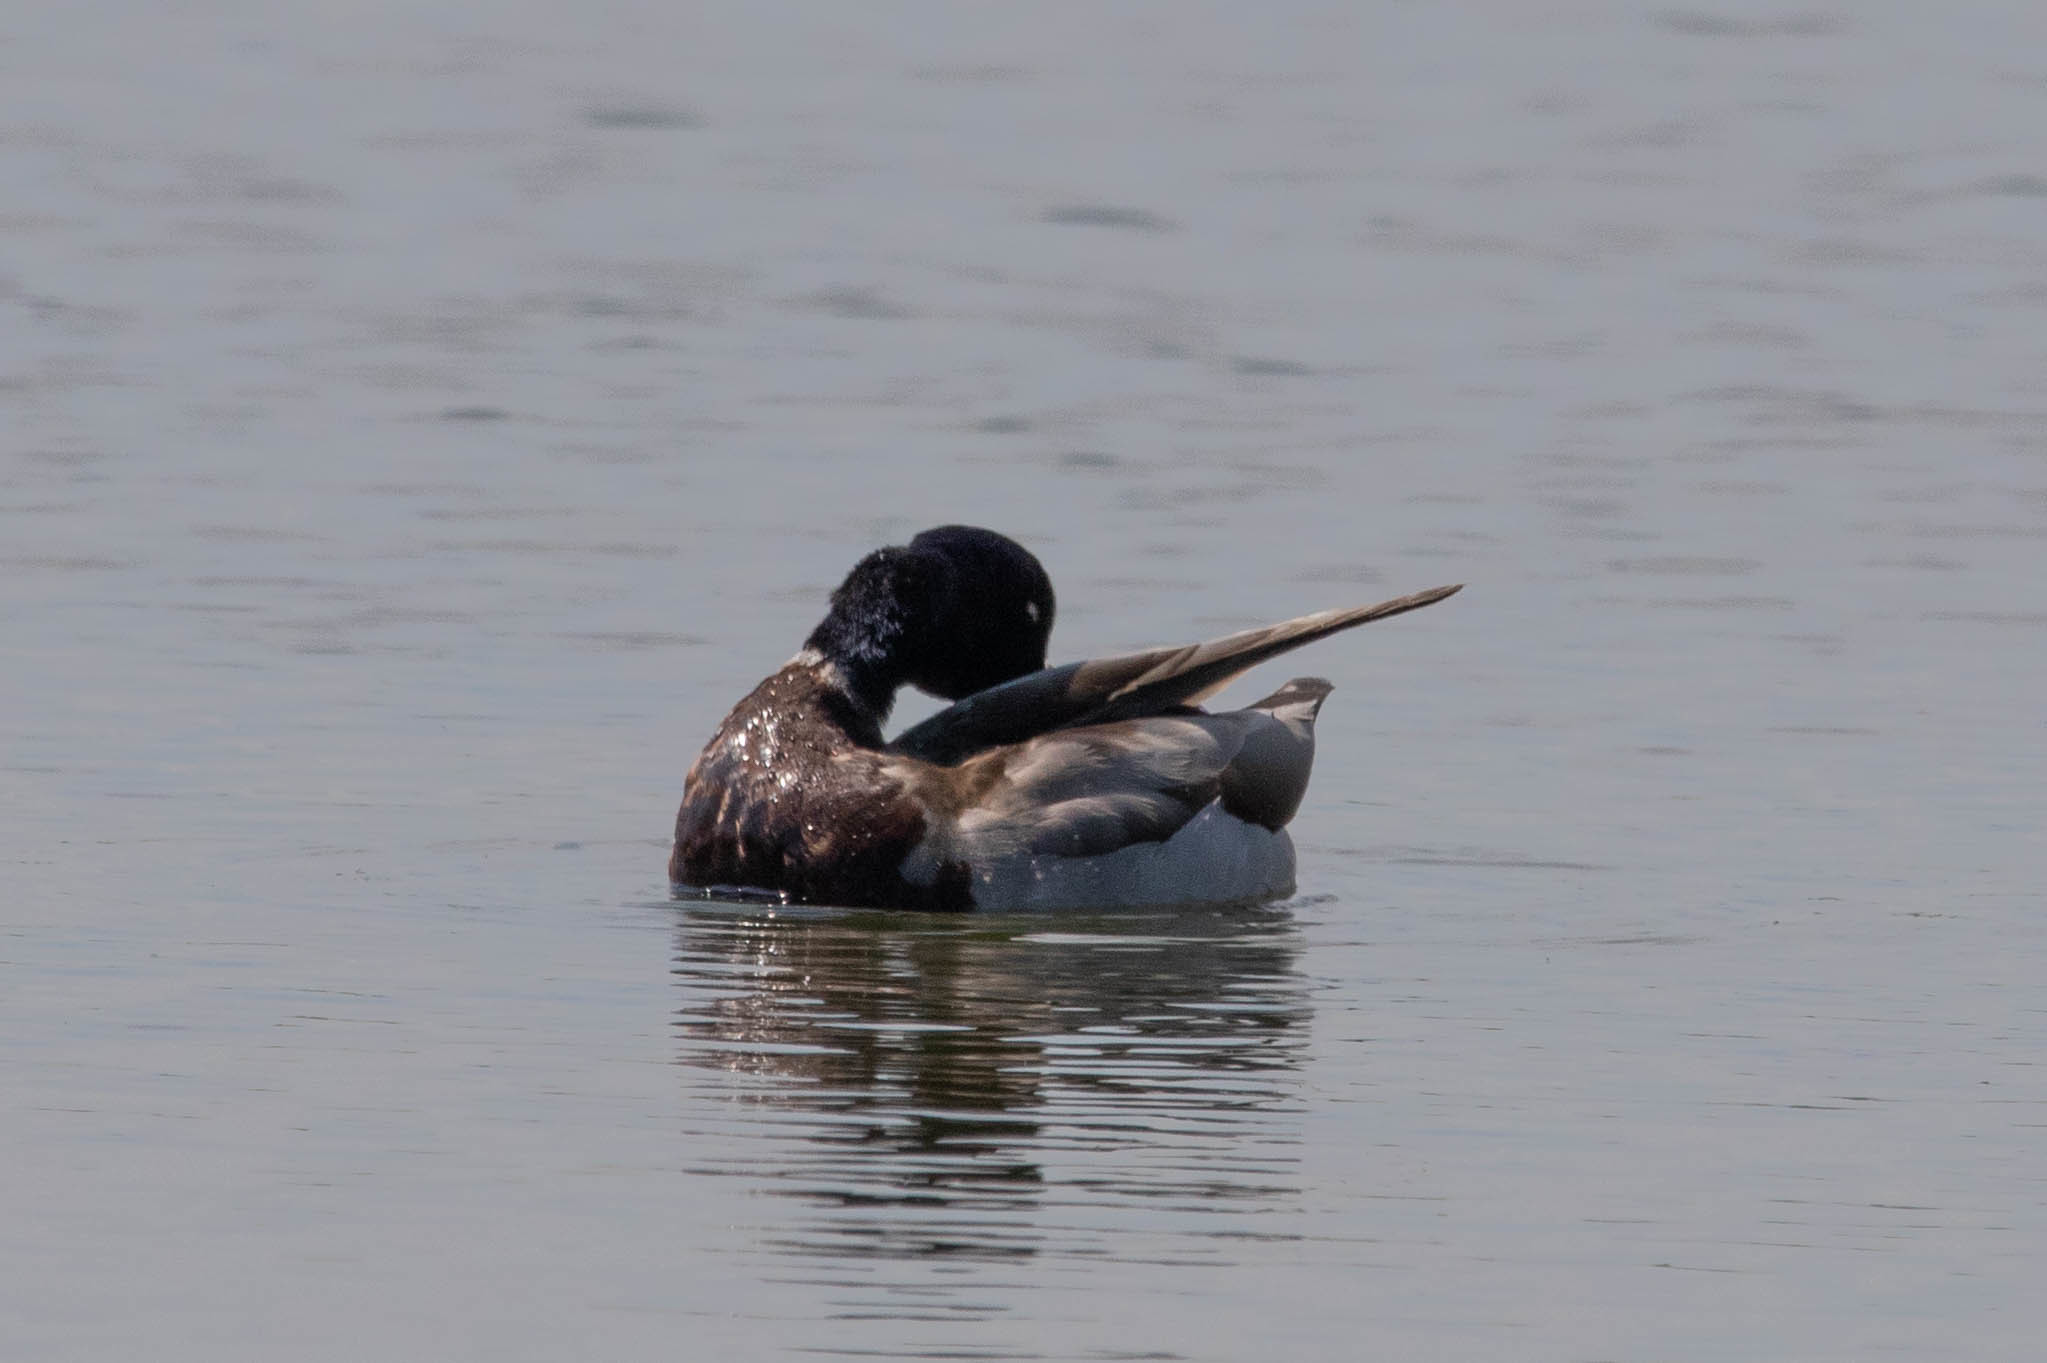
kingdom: Animalia
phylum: Chordata
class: Aves
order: Anseriformes
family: Anatidae
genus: Anas
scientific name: Anas platyrhynchos
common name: Mallard
